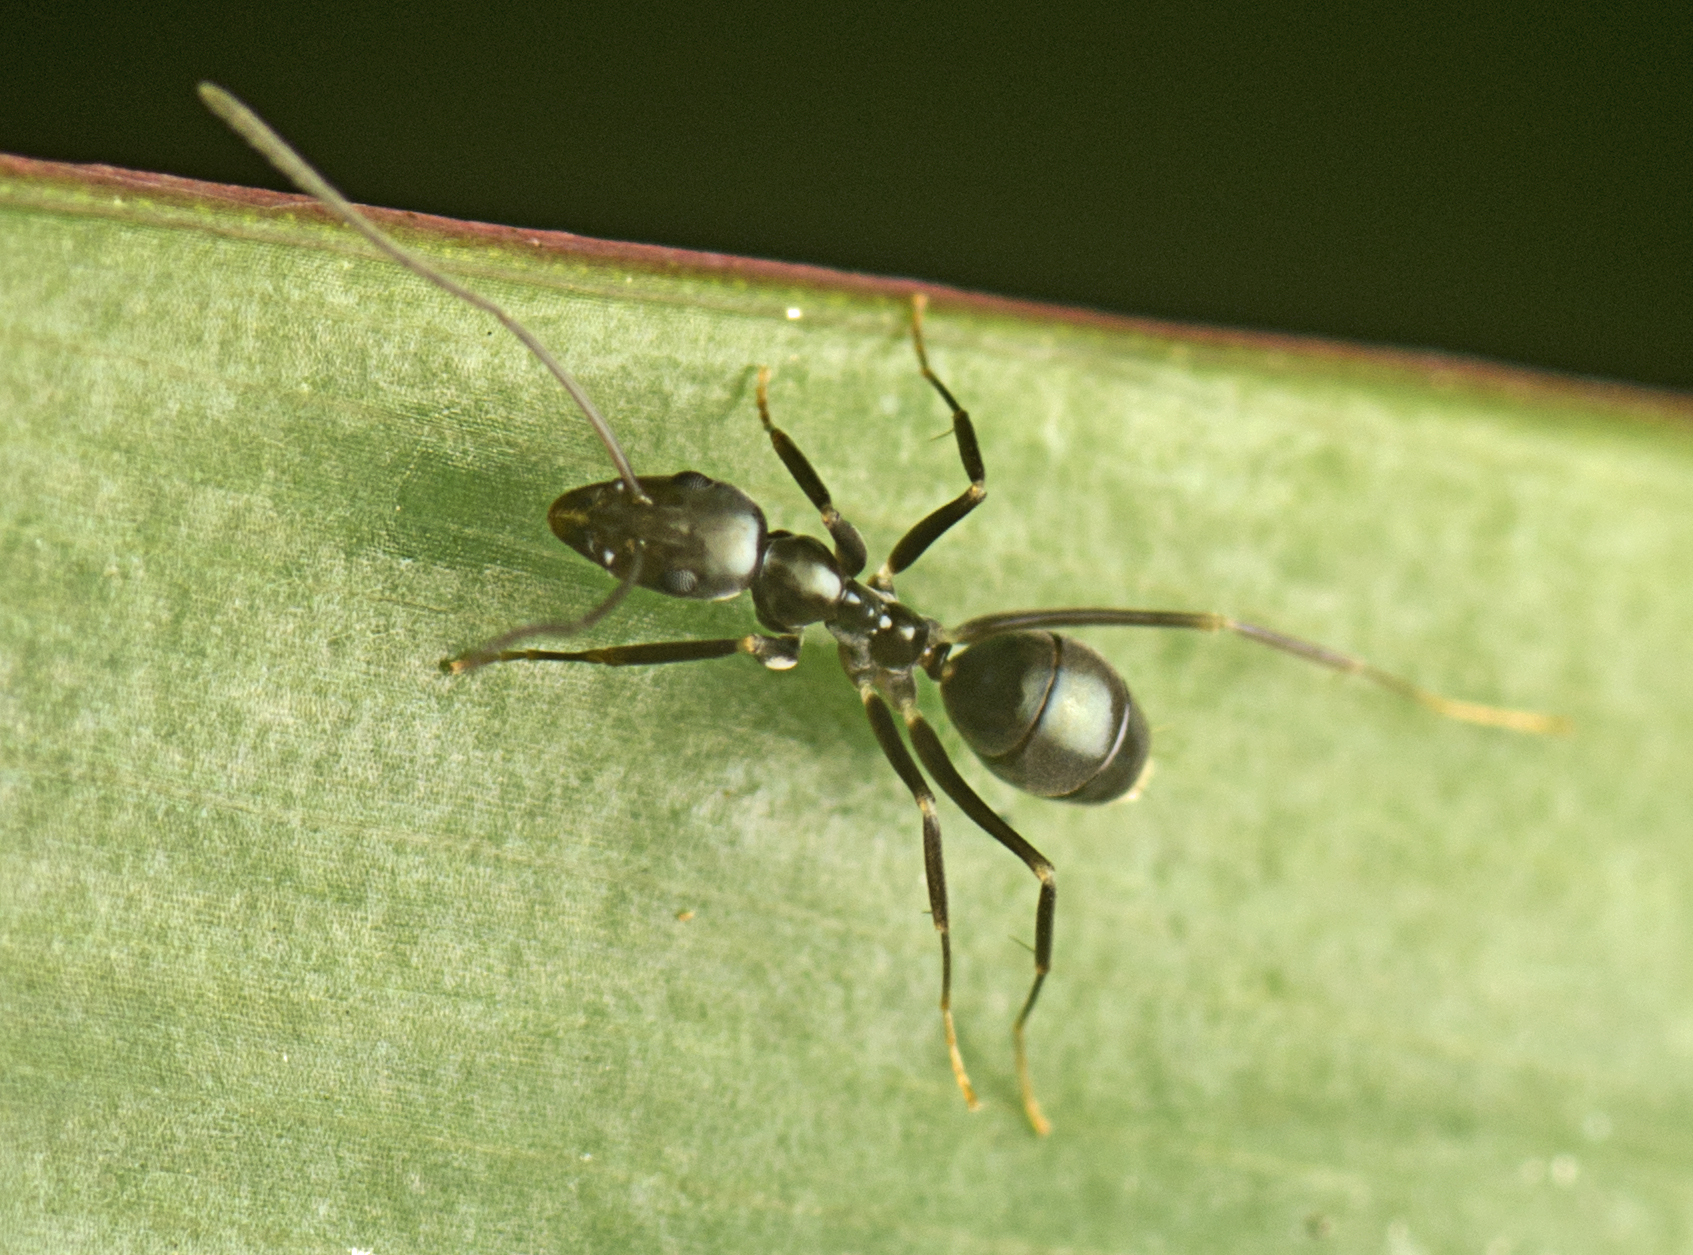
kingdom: Animalia
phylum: Arthropoda
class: Insecta
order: Hymenoptera
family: Formicidae
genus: Leptomyrmex
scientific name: Leptomyrmex burwelli
